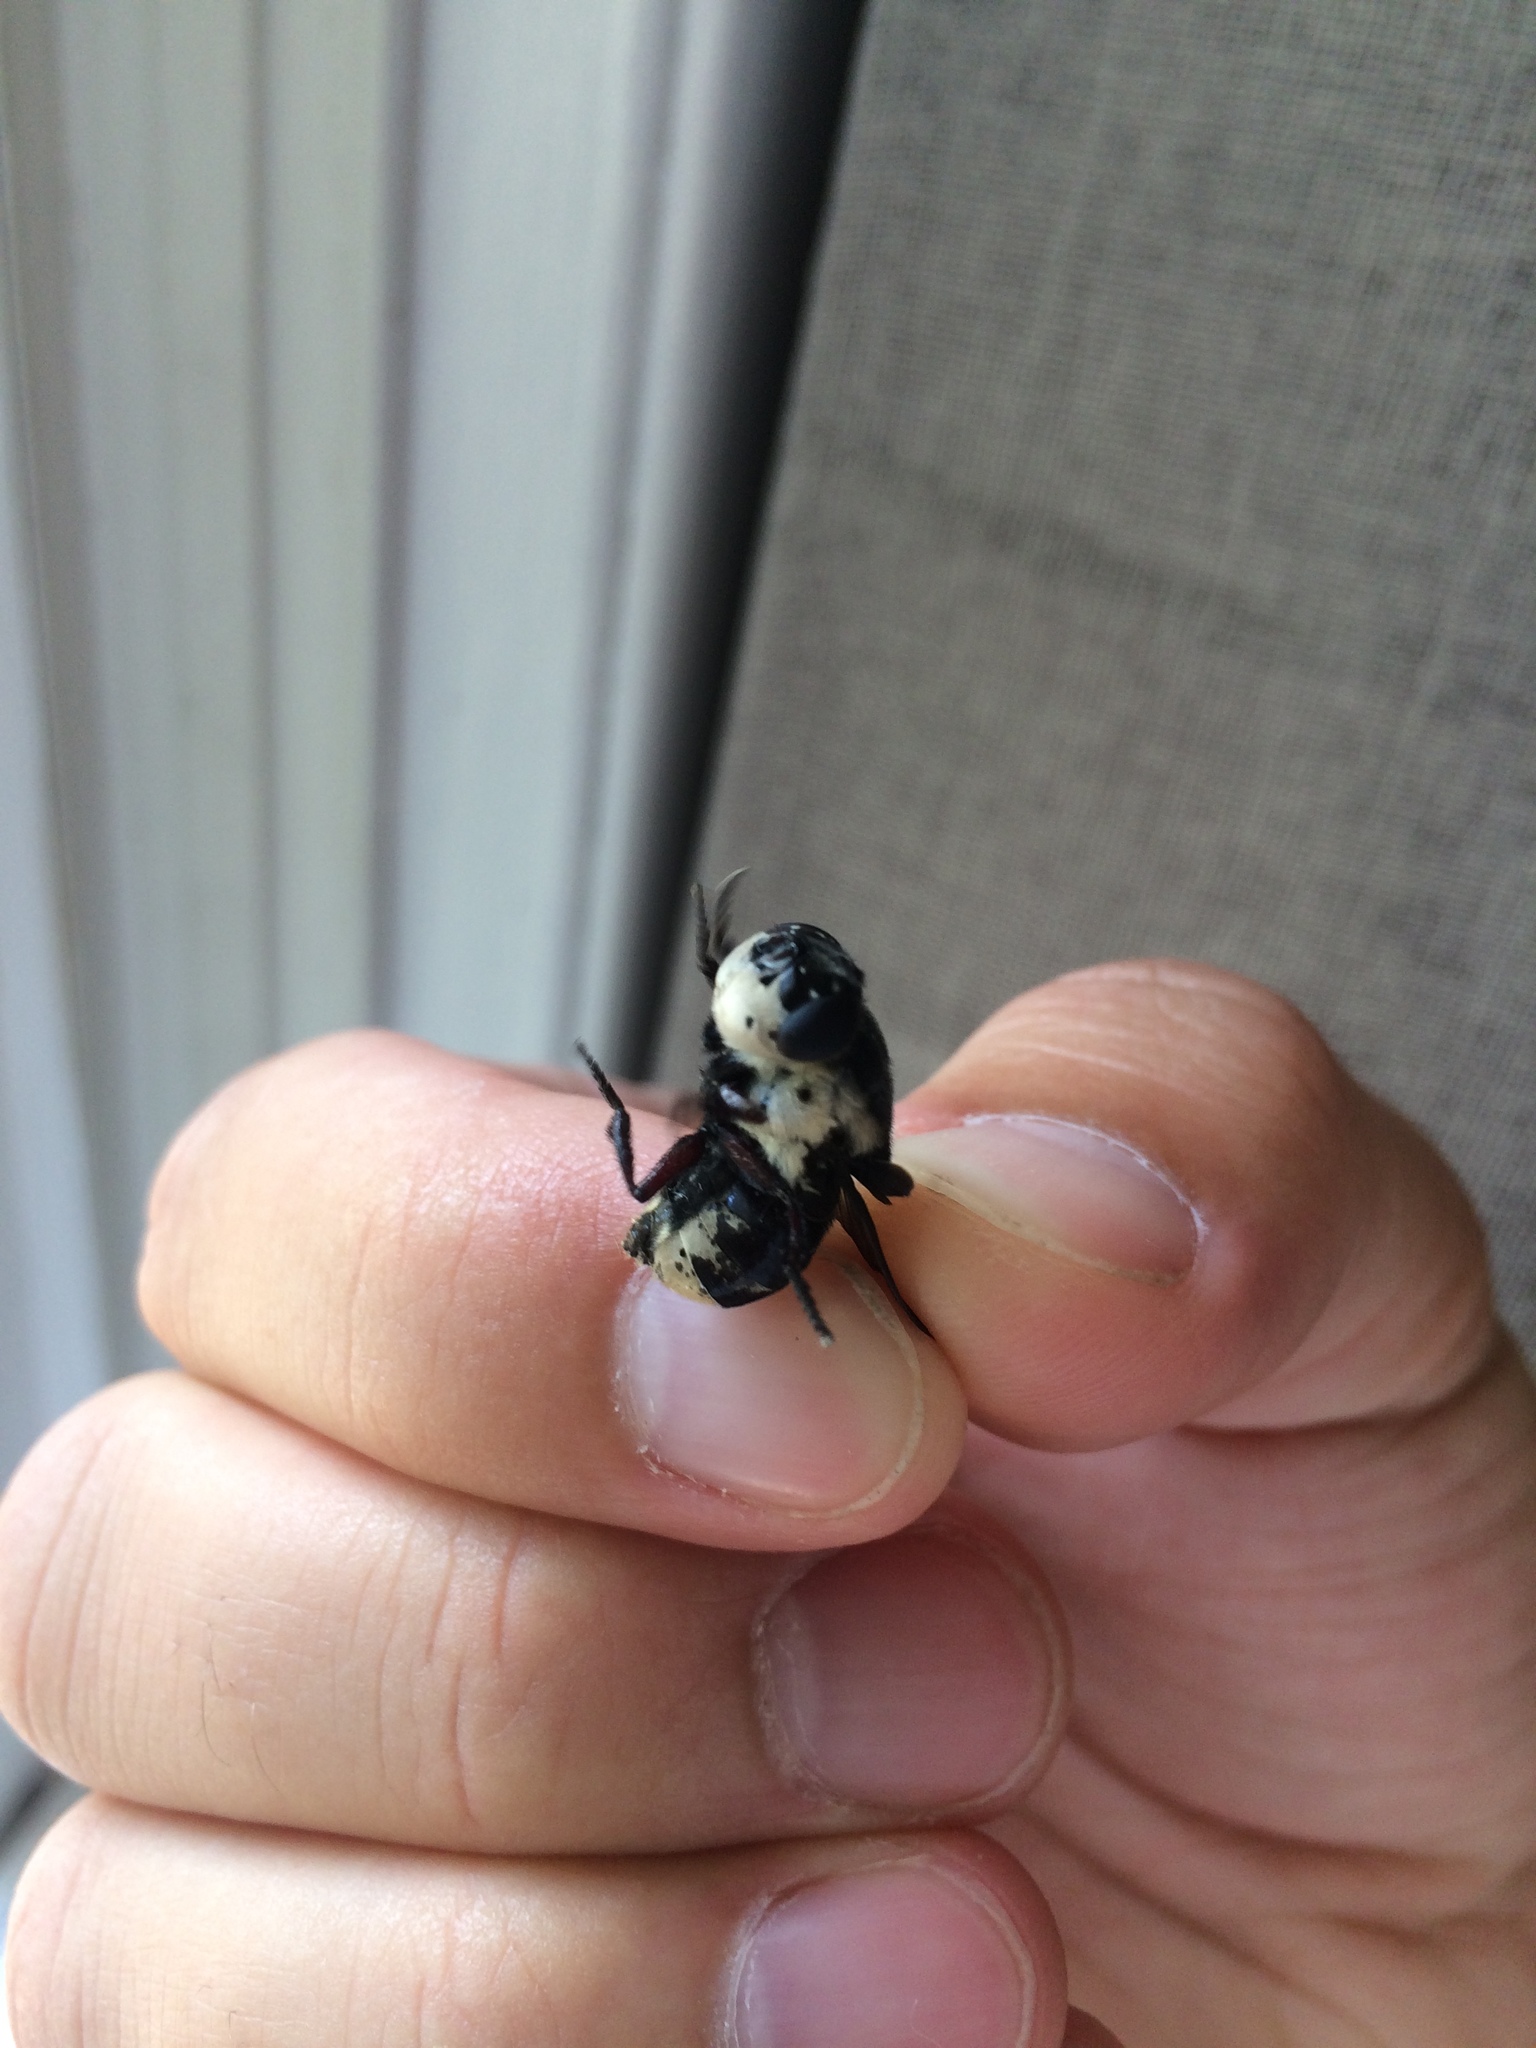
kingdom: Animalia
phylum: Arthropoda
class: Insecta
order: Diptera
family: Oestridae
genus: Cuterebra
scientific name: Cuterebra fontinella
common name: Mouse bot fly
